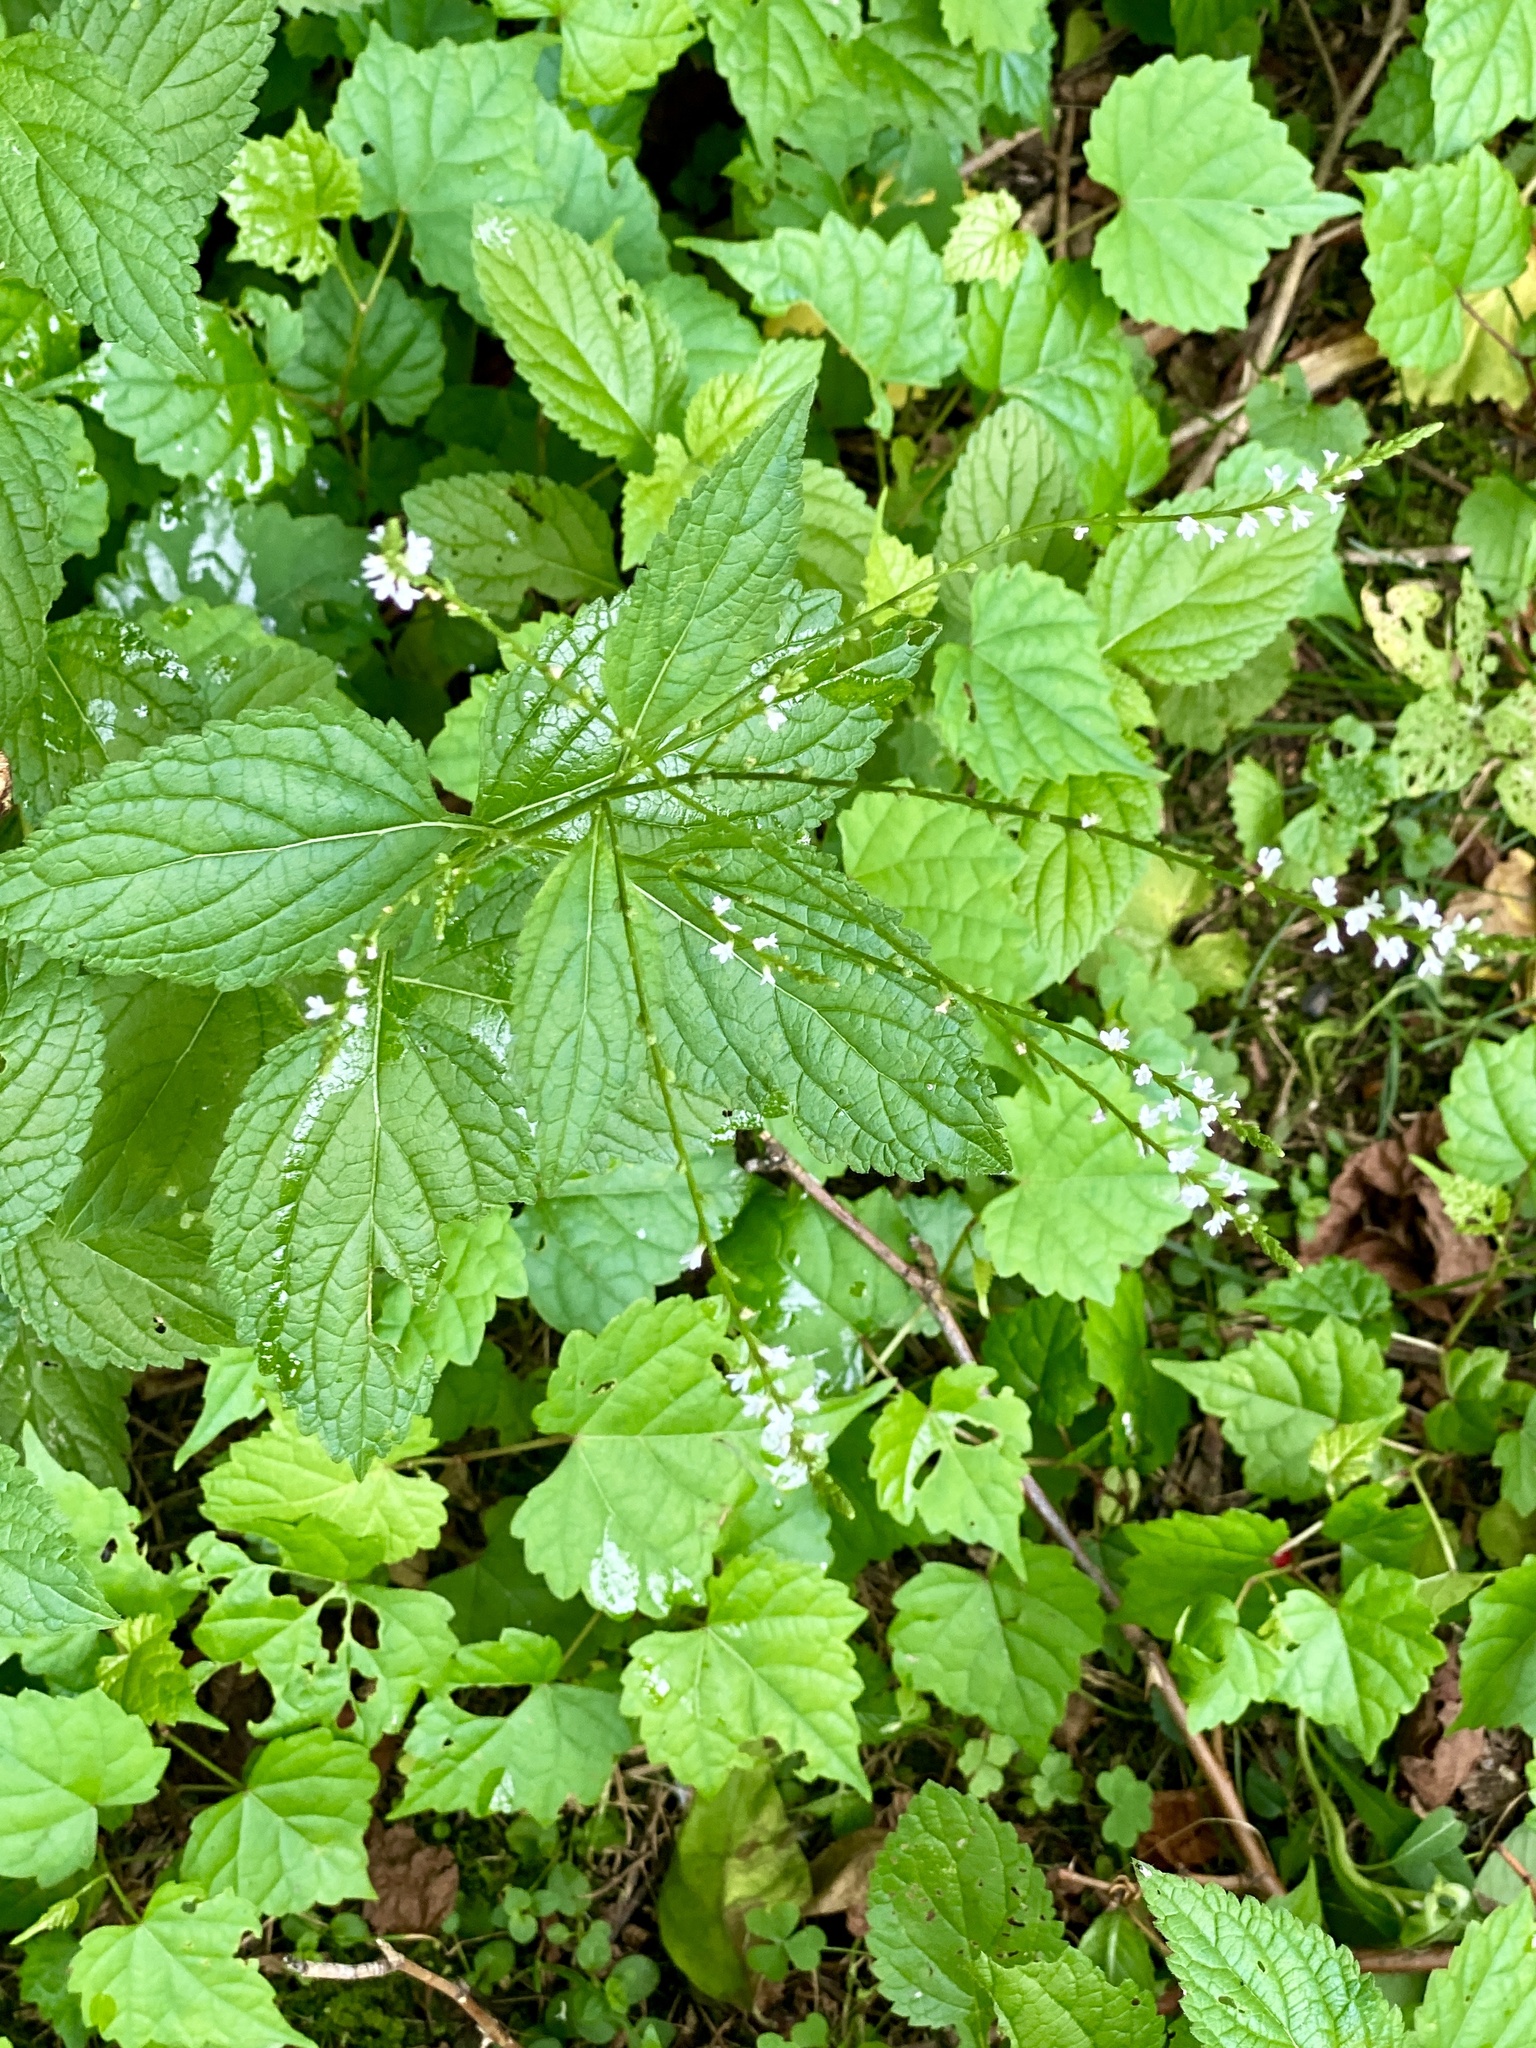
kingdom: Plantae
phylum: Tracheophyta
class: Magnoliopsida
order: Lamiales
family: Verbenaceae
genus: Verbena
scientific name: Verbena urticifolia
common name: Nettle-leaved vervain
